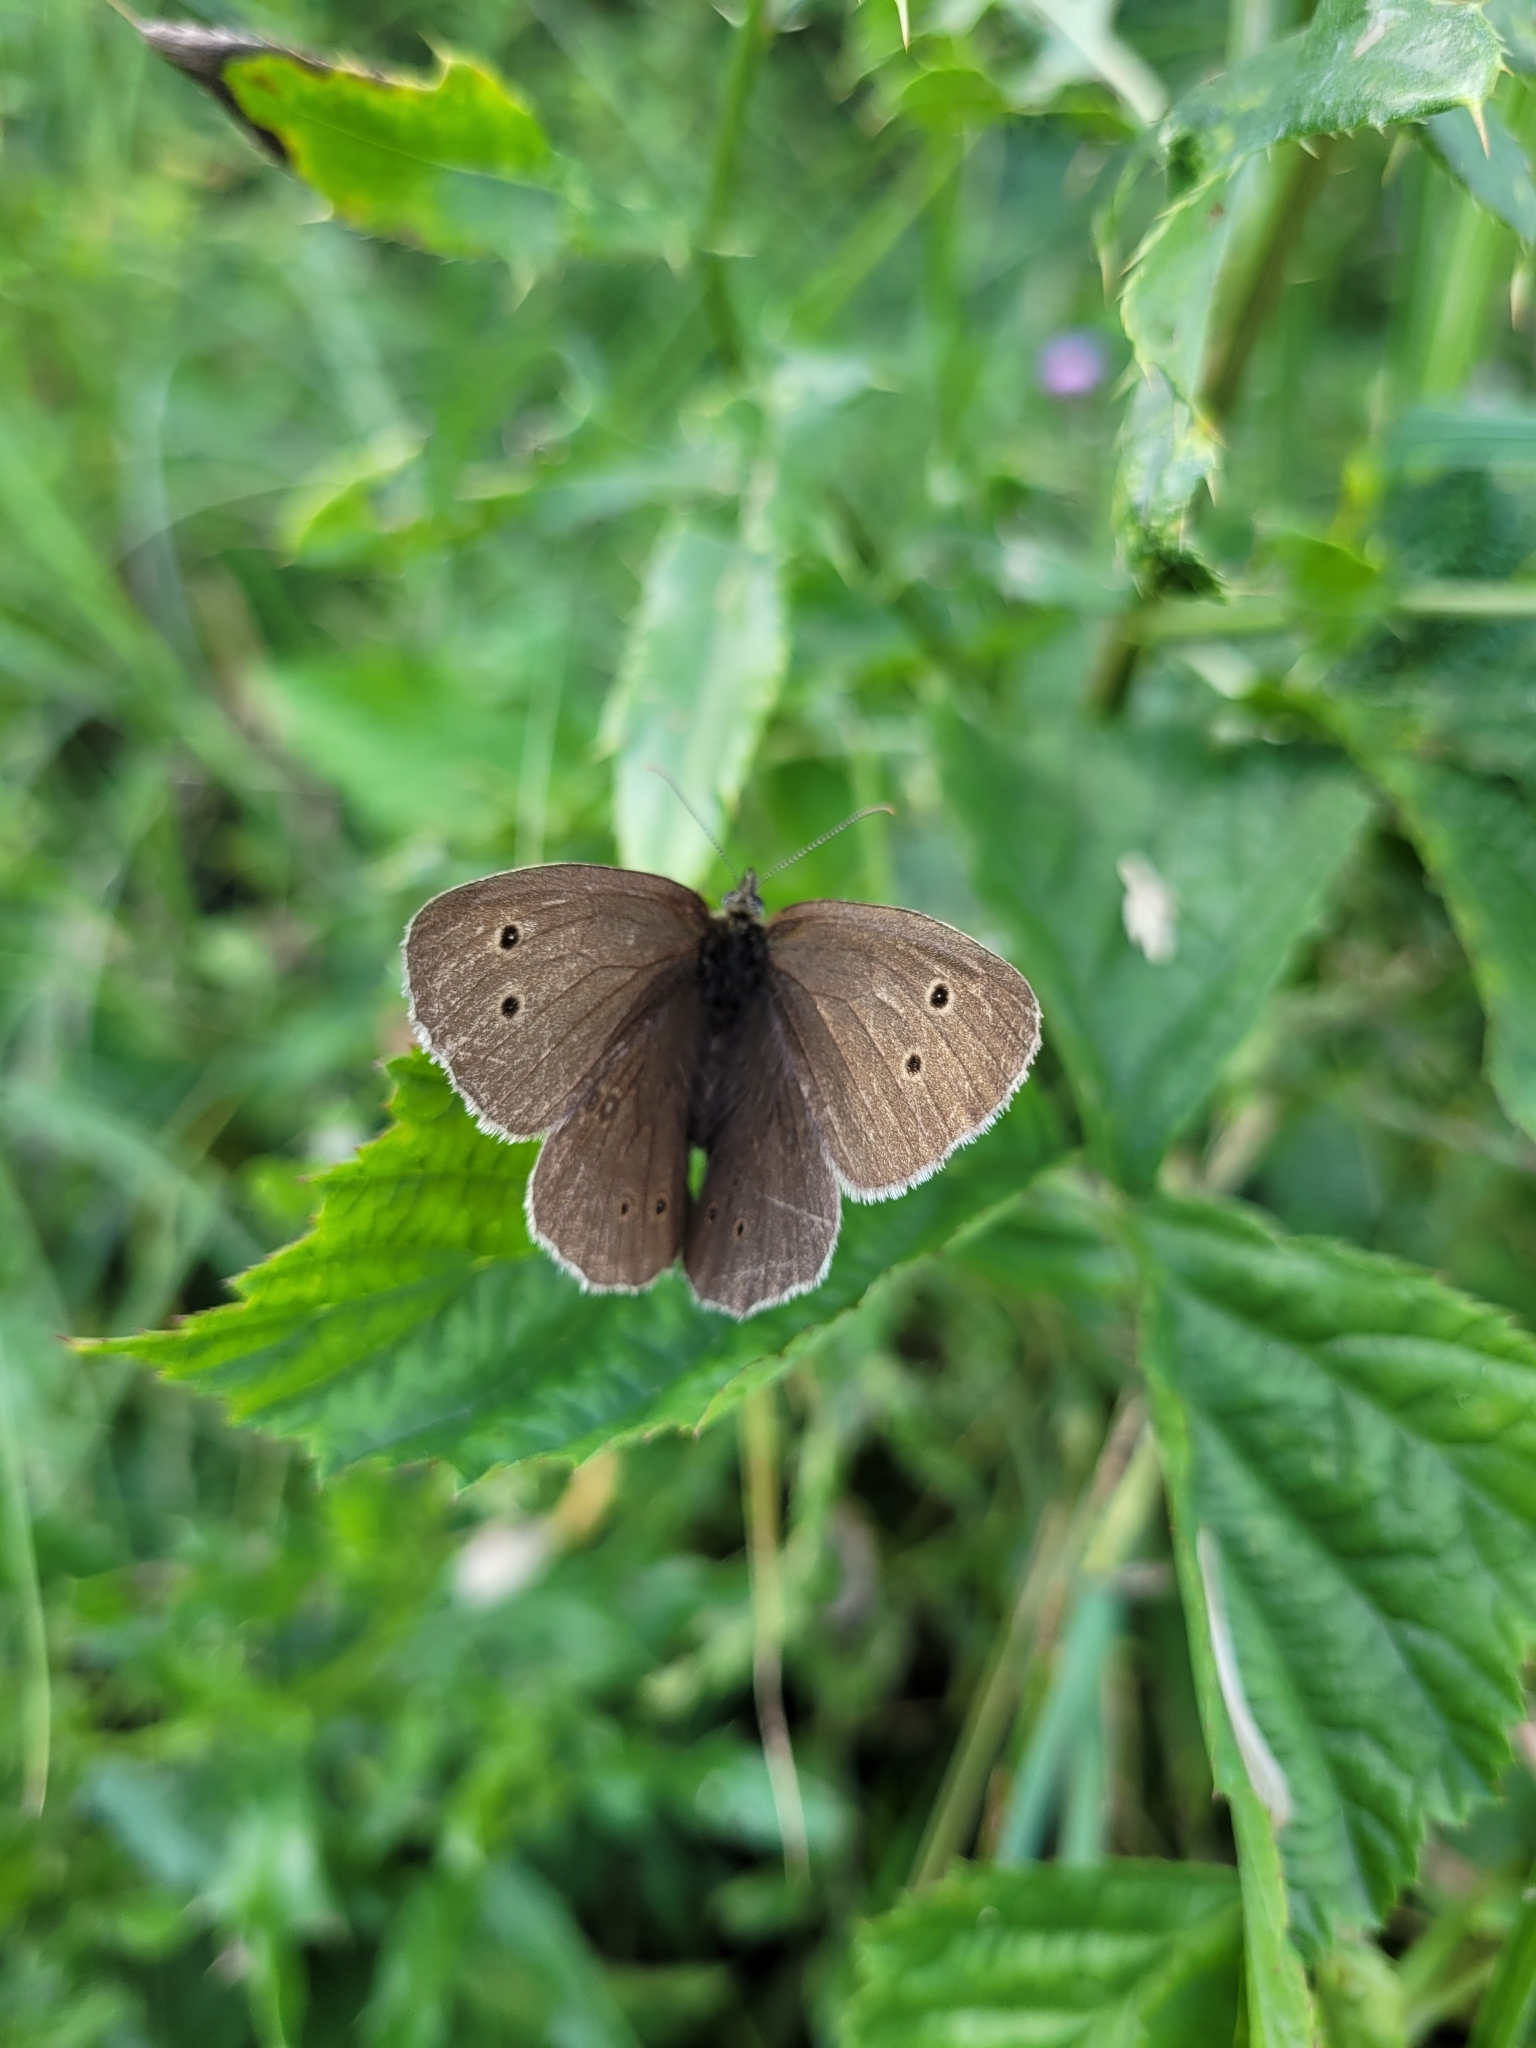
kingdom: Animalia
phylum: Arthropoda
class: Insecta
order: Lepidoptera
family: Nymphalidae
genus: Aphantopus
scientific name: Aphantopus hyperantus
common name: Ringlet
